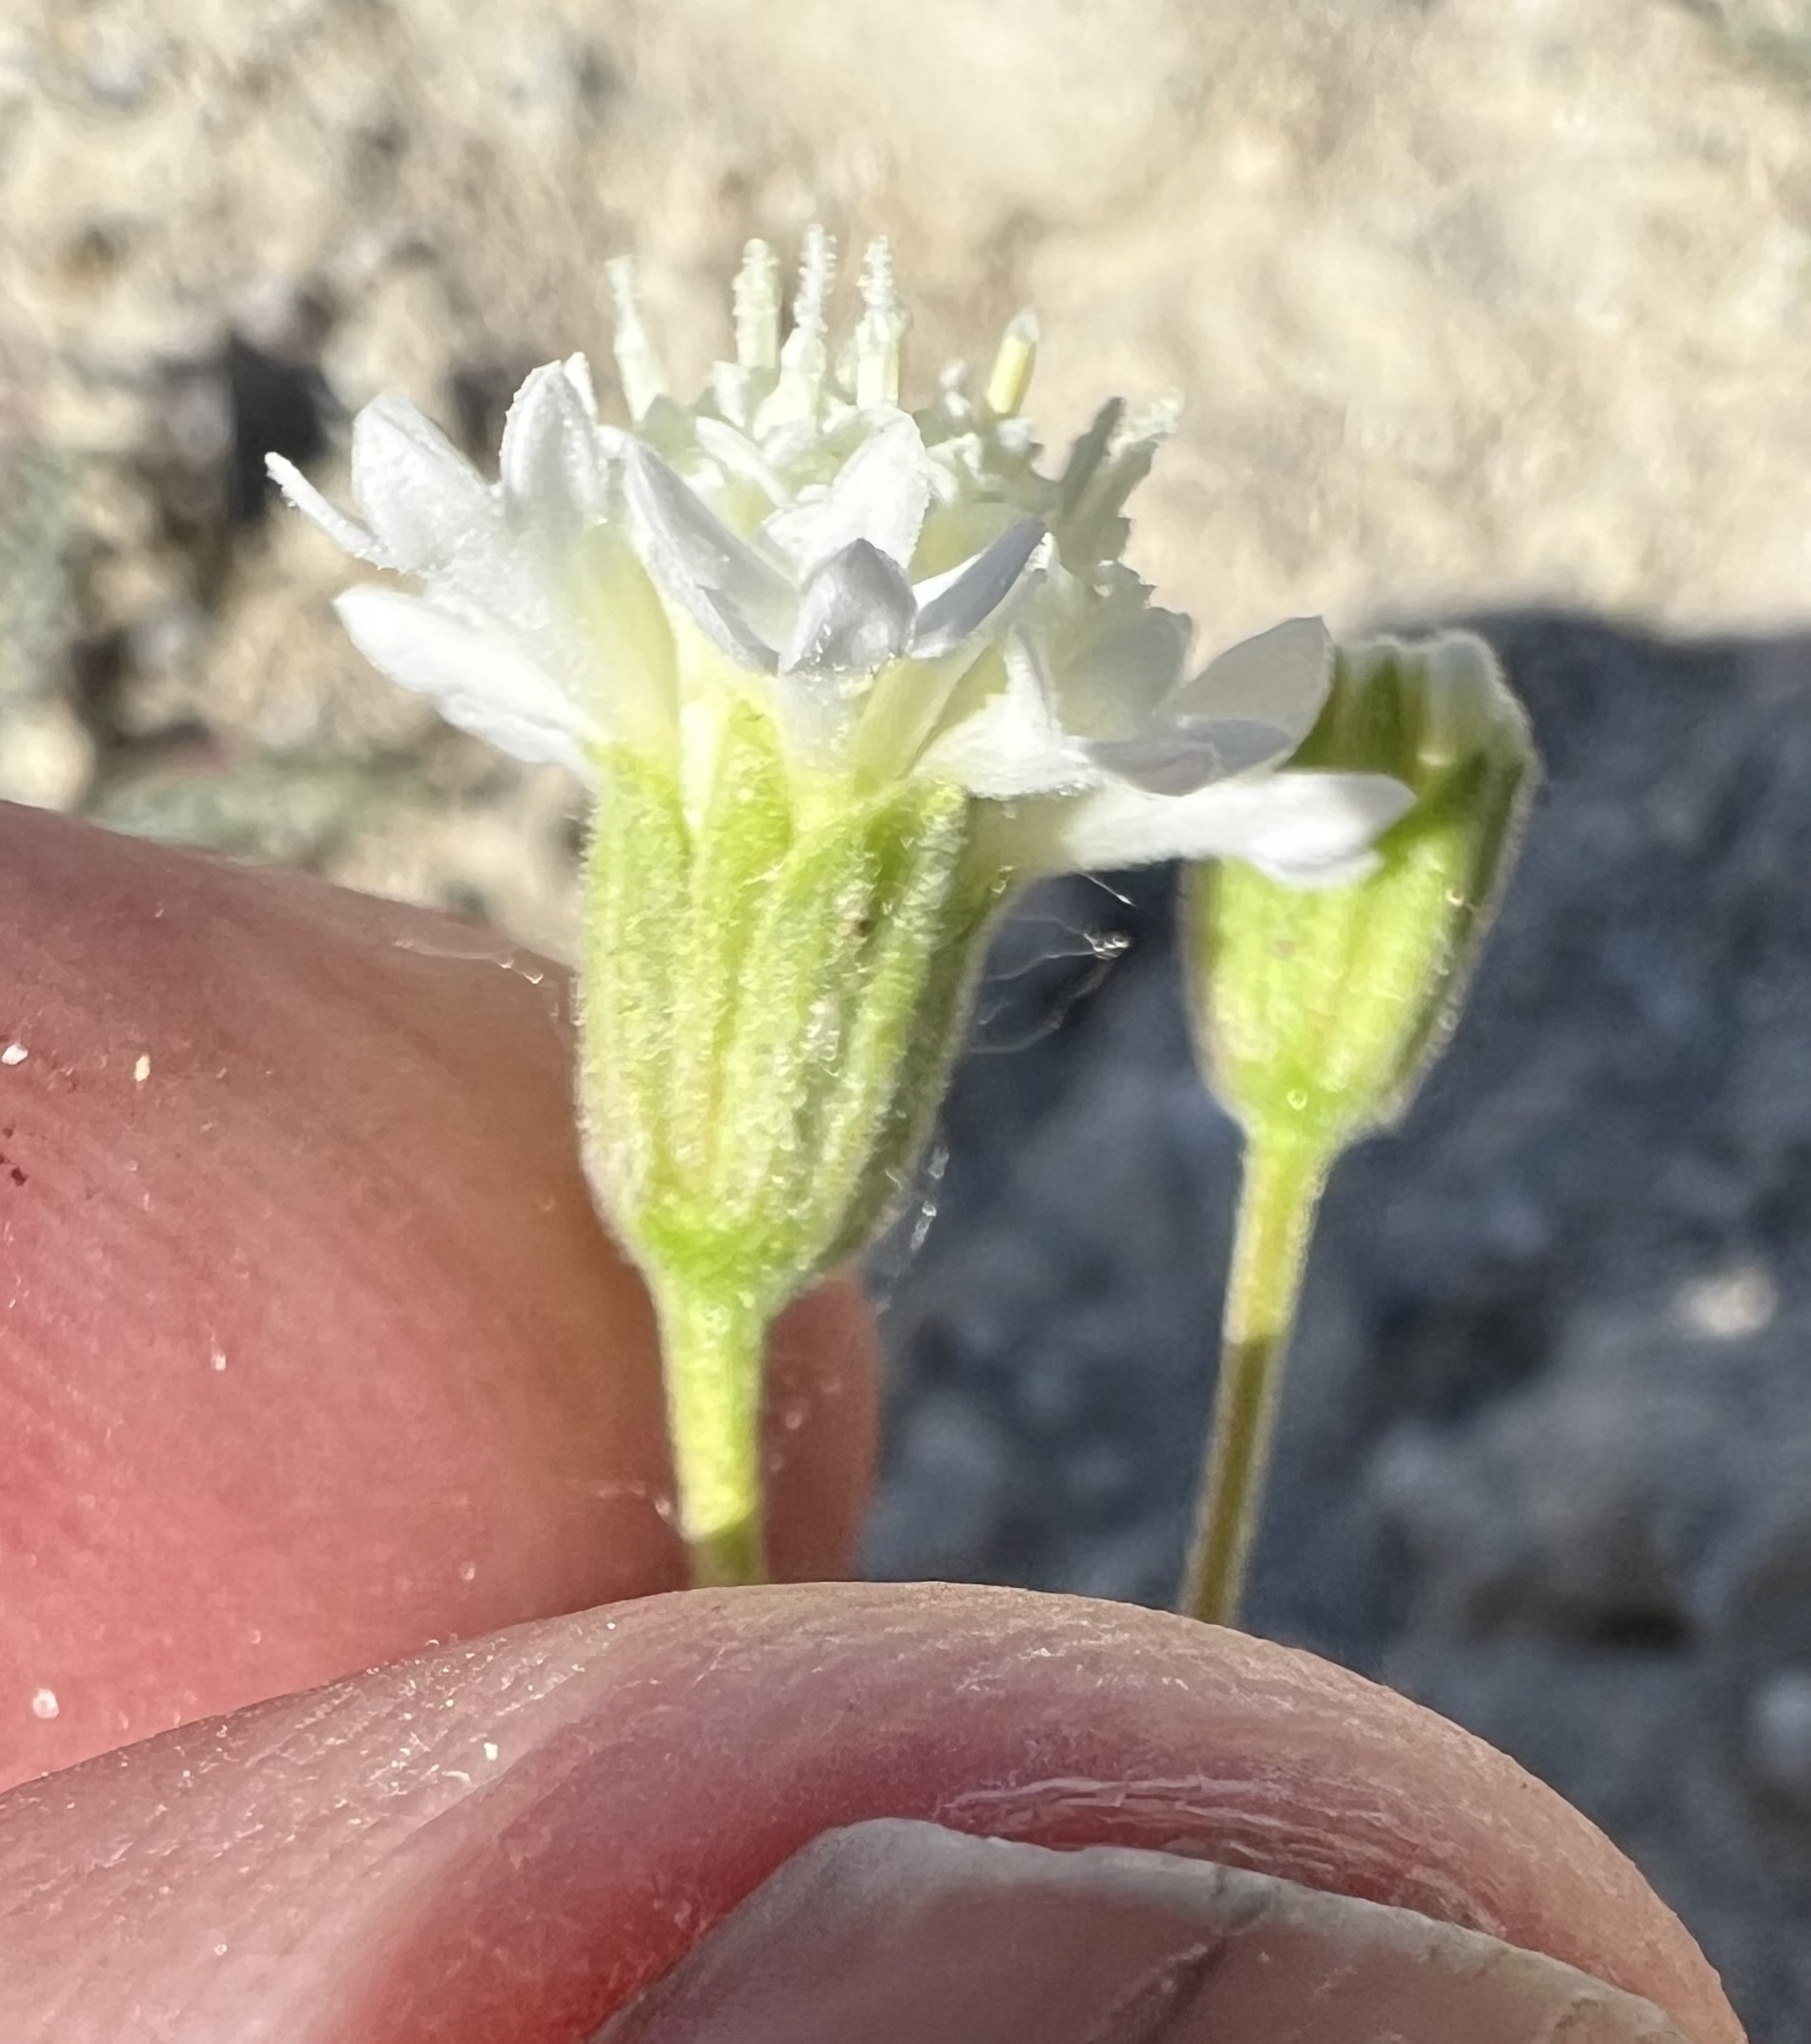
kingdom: Plantae
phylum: Tracheophyta
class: Magnoliopsida
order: Asterales
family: Asteraceae
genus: Chaenactis
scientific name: Chaenactis stevioides
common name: Desert pincushion
